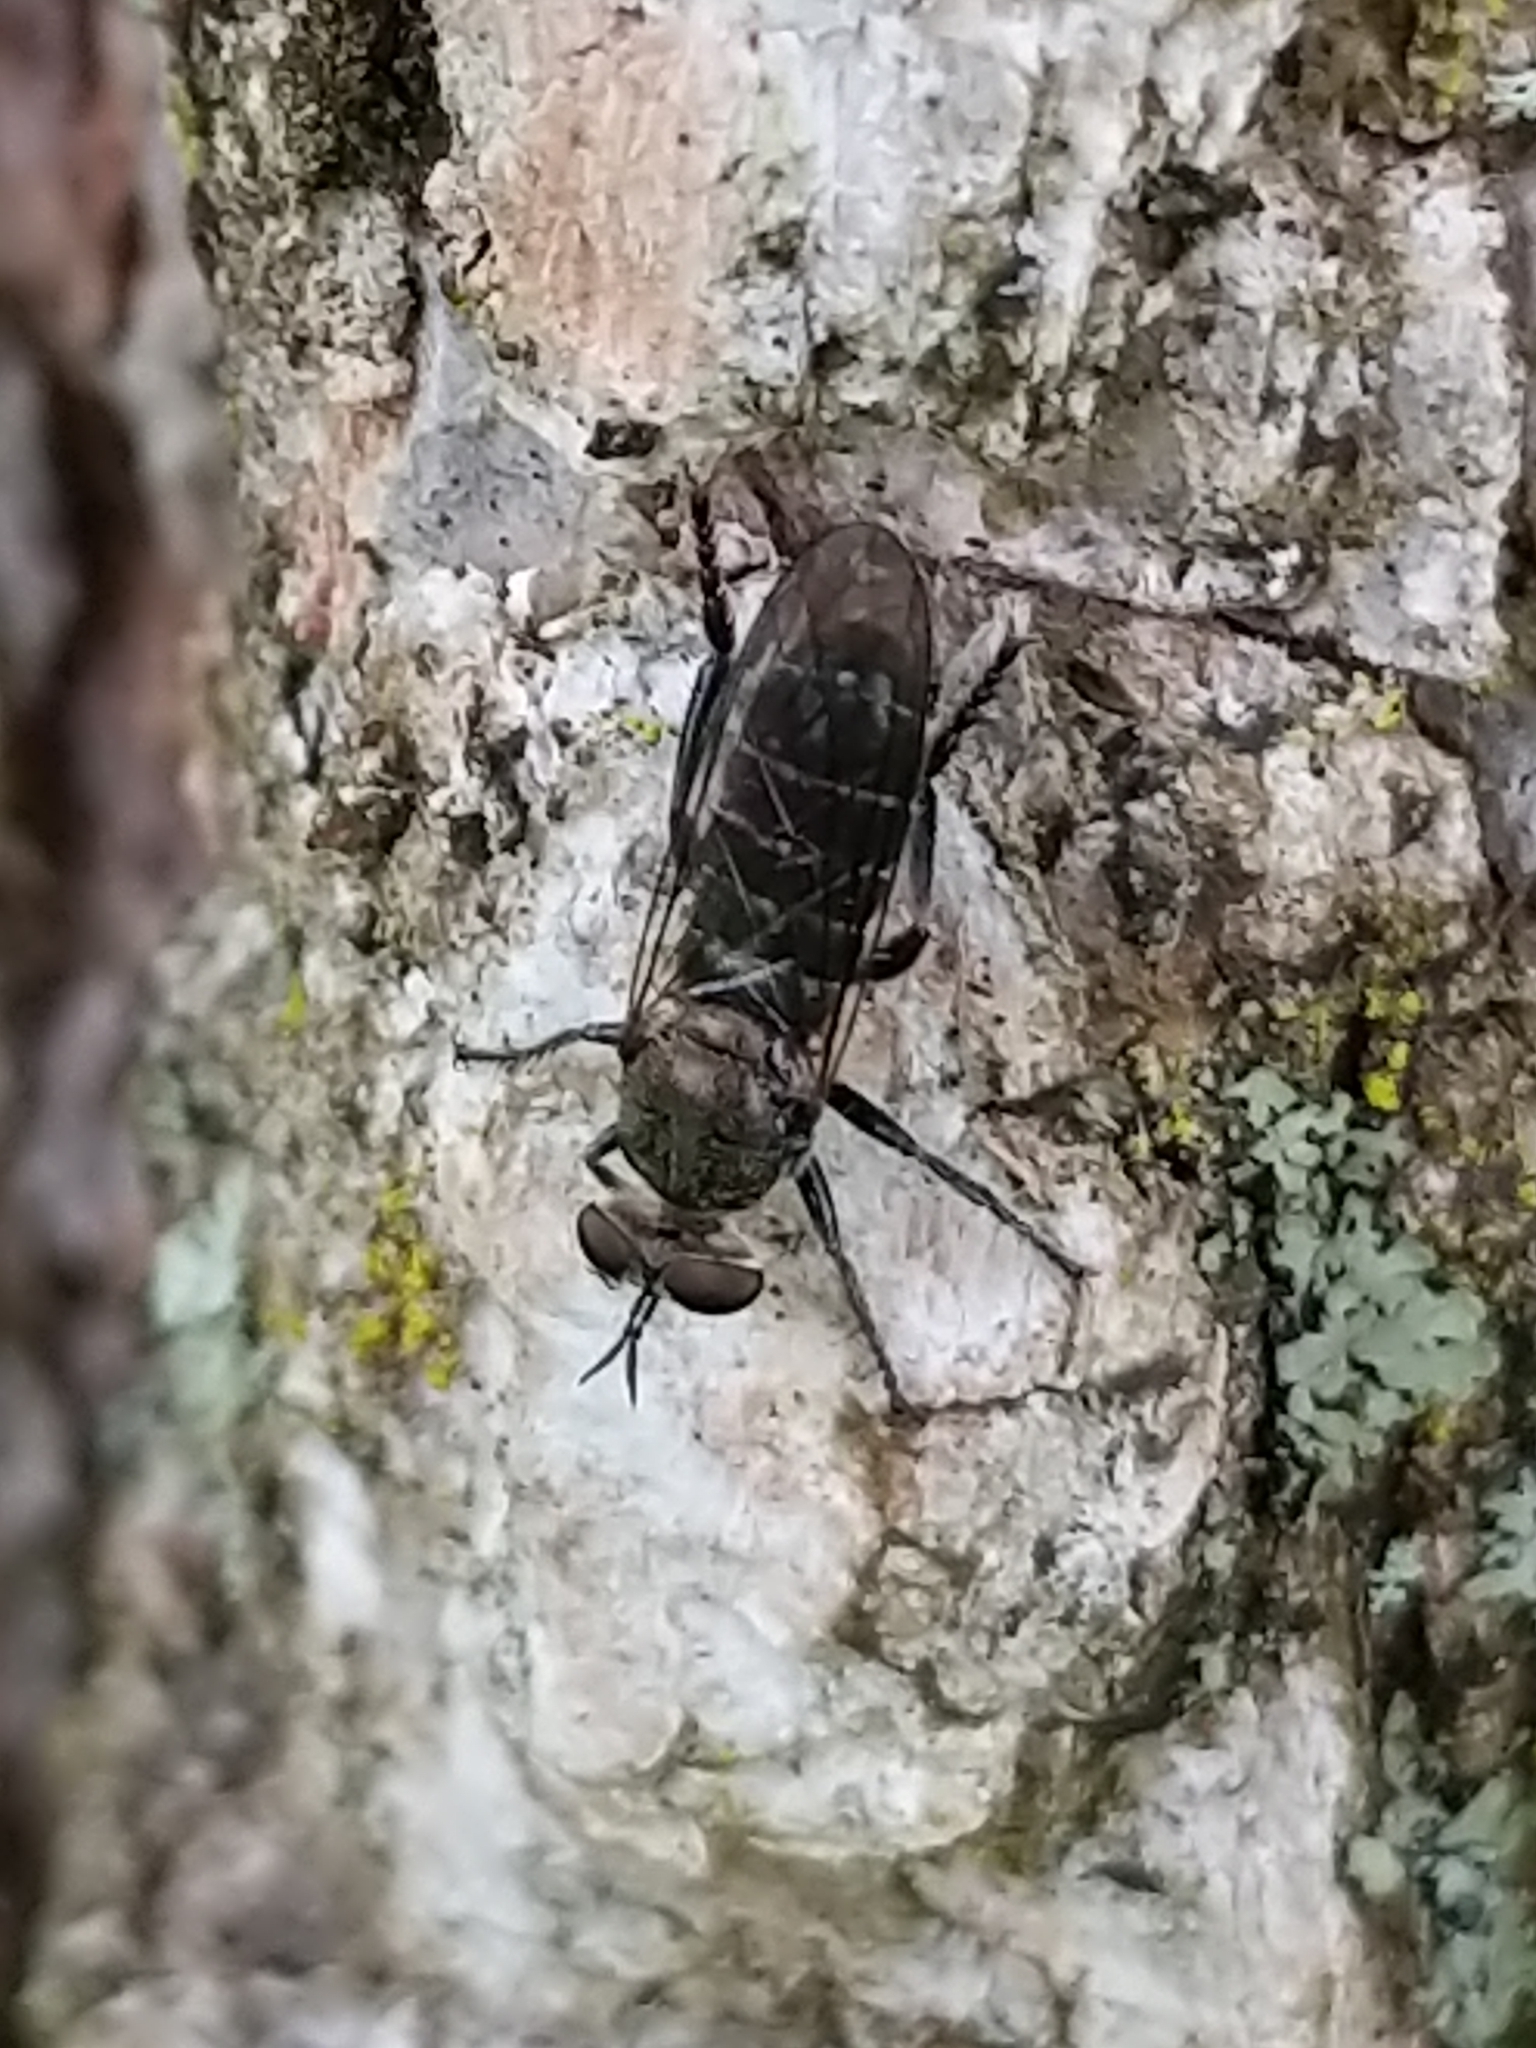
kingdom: Animalia
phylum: Arthropoda
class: Insecta
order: Diptera
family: Asilidae
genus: Atomosia
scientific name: Atomosia puella
